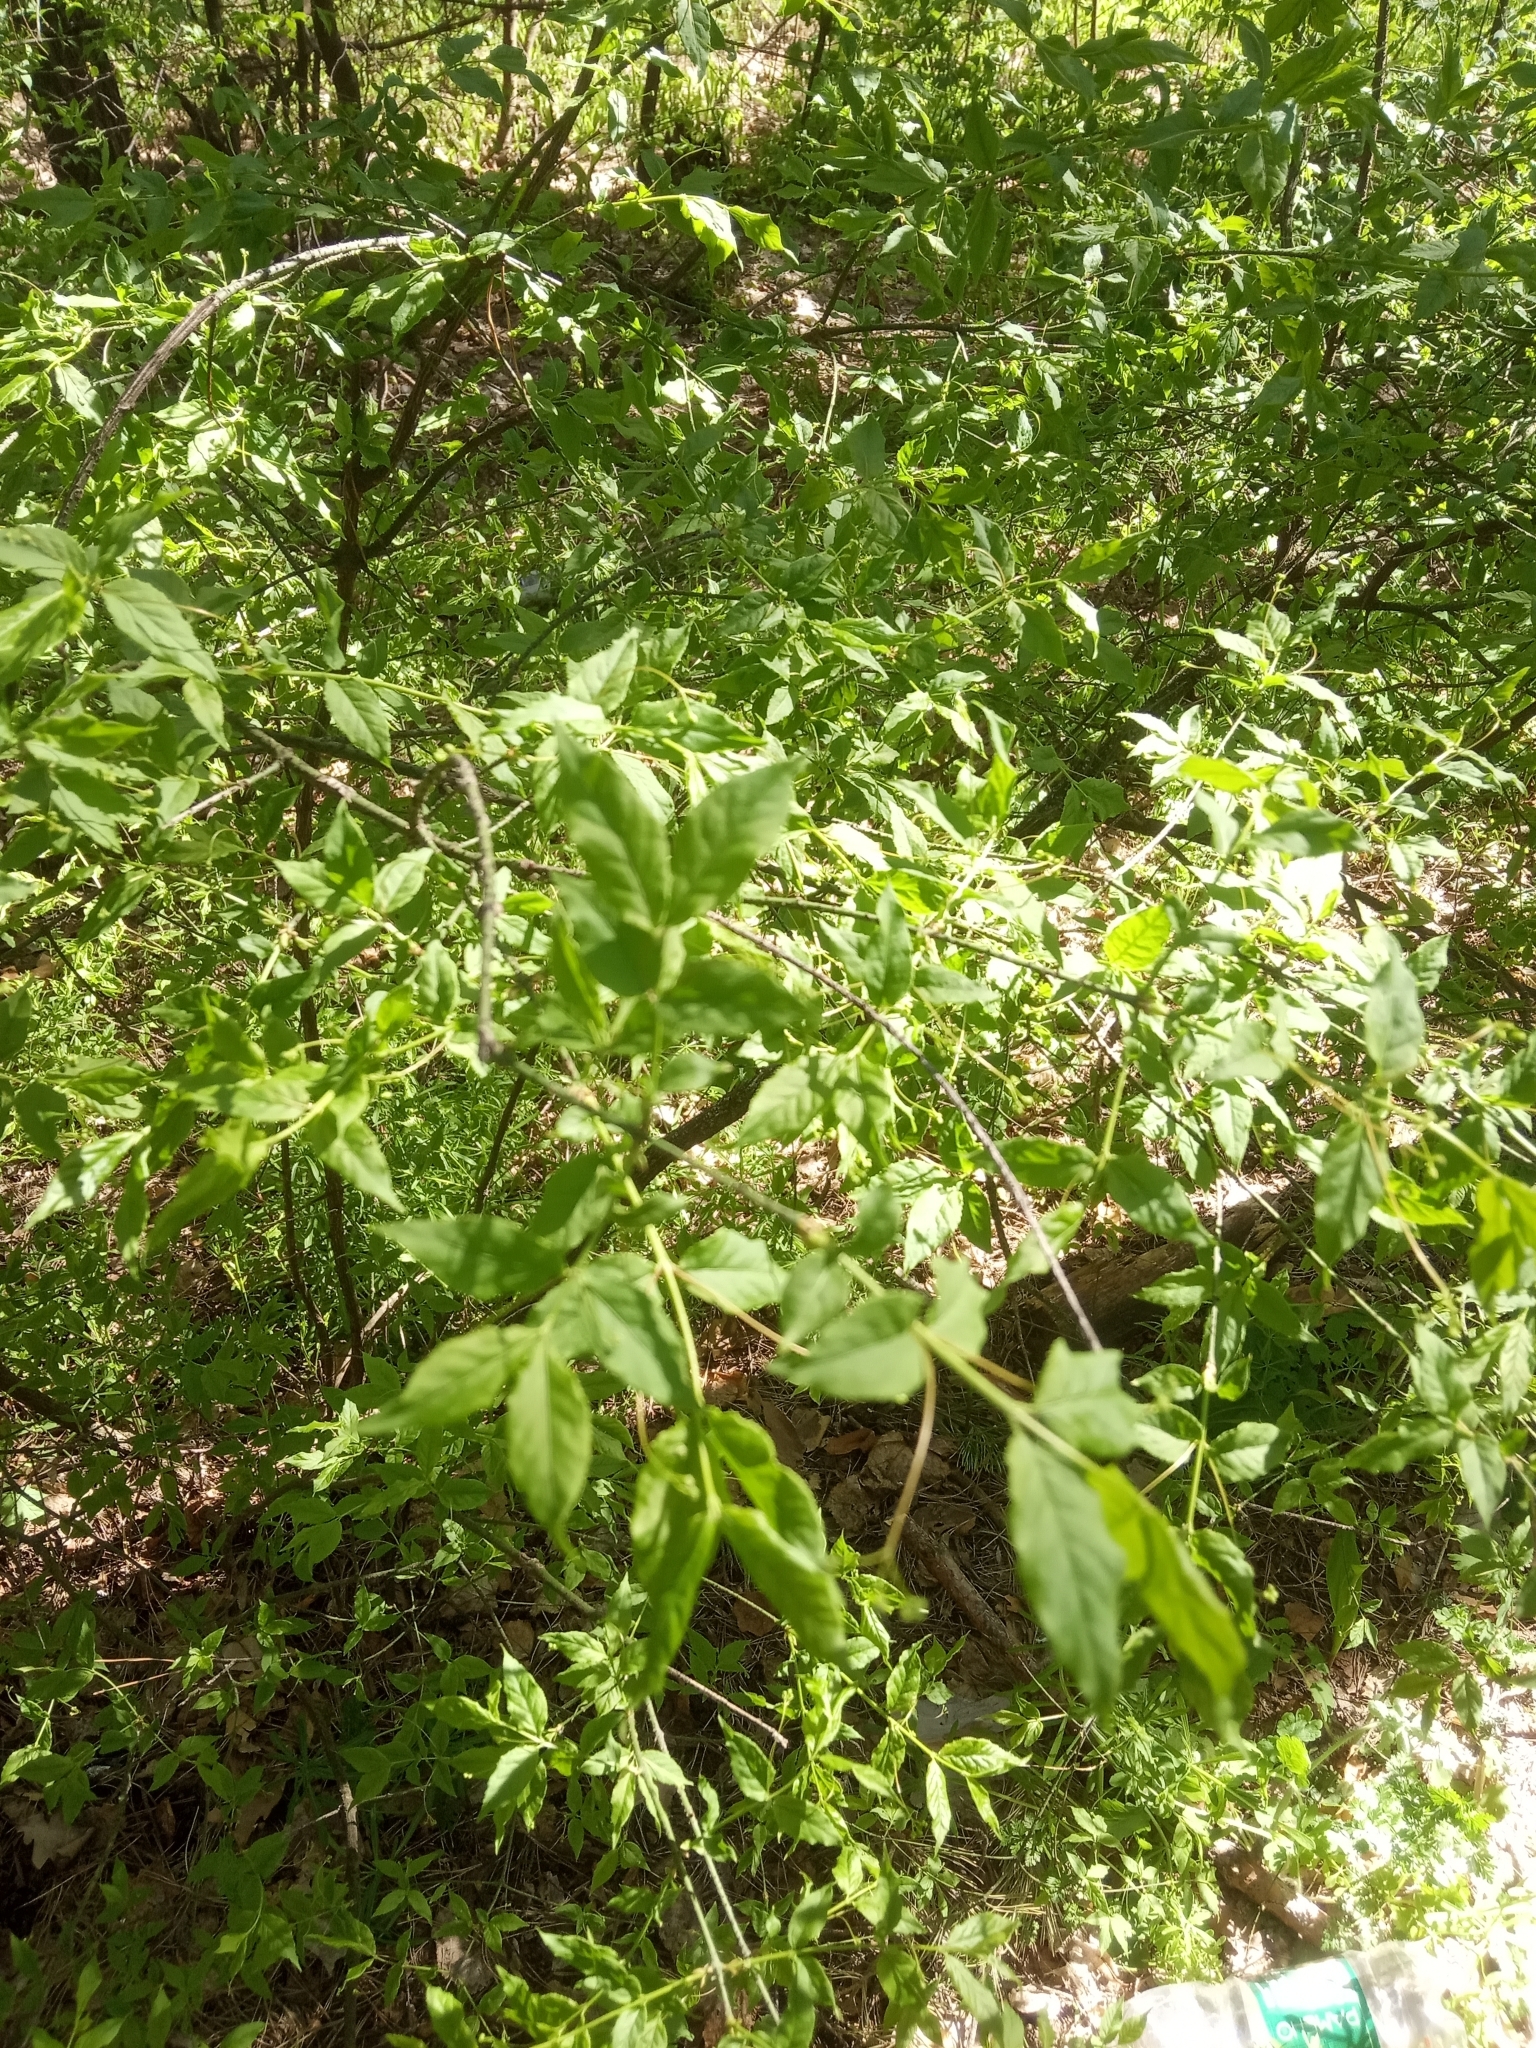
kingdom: Plantae
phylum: Tracheophyta
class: Magnoliopsida
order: Celastrales
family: Celastraceae
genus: Euonymus
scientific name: Euonymus verrucosus
